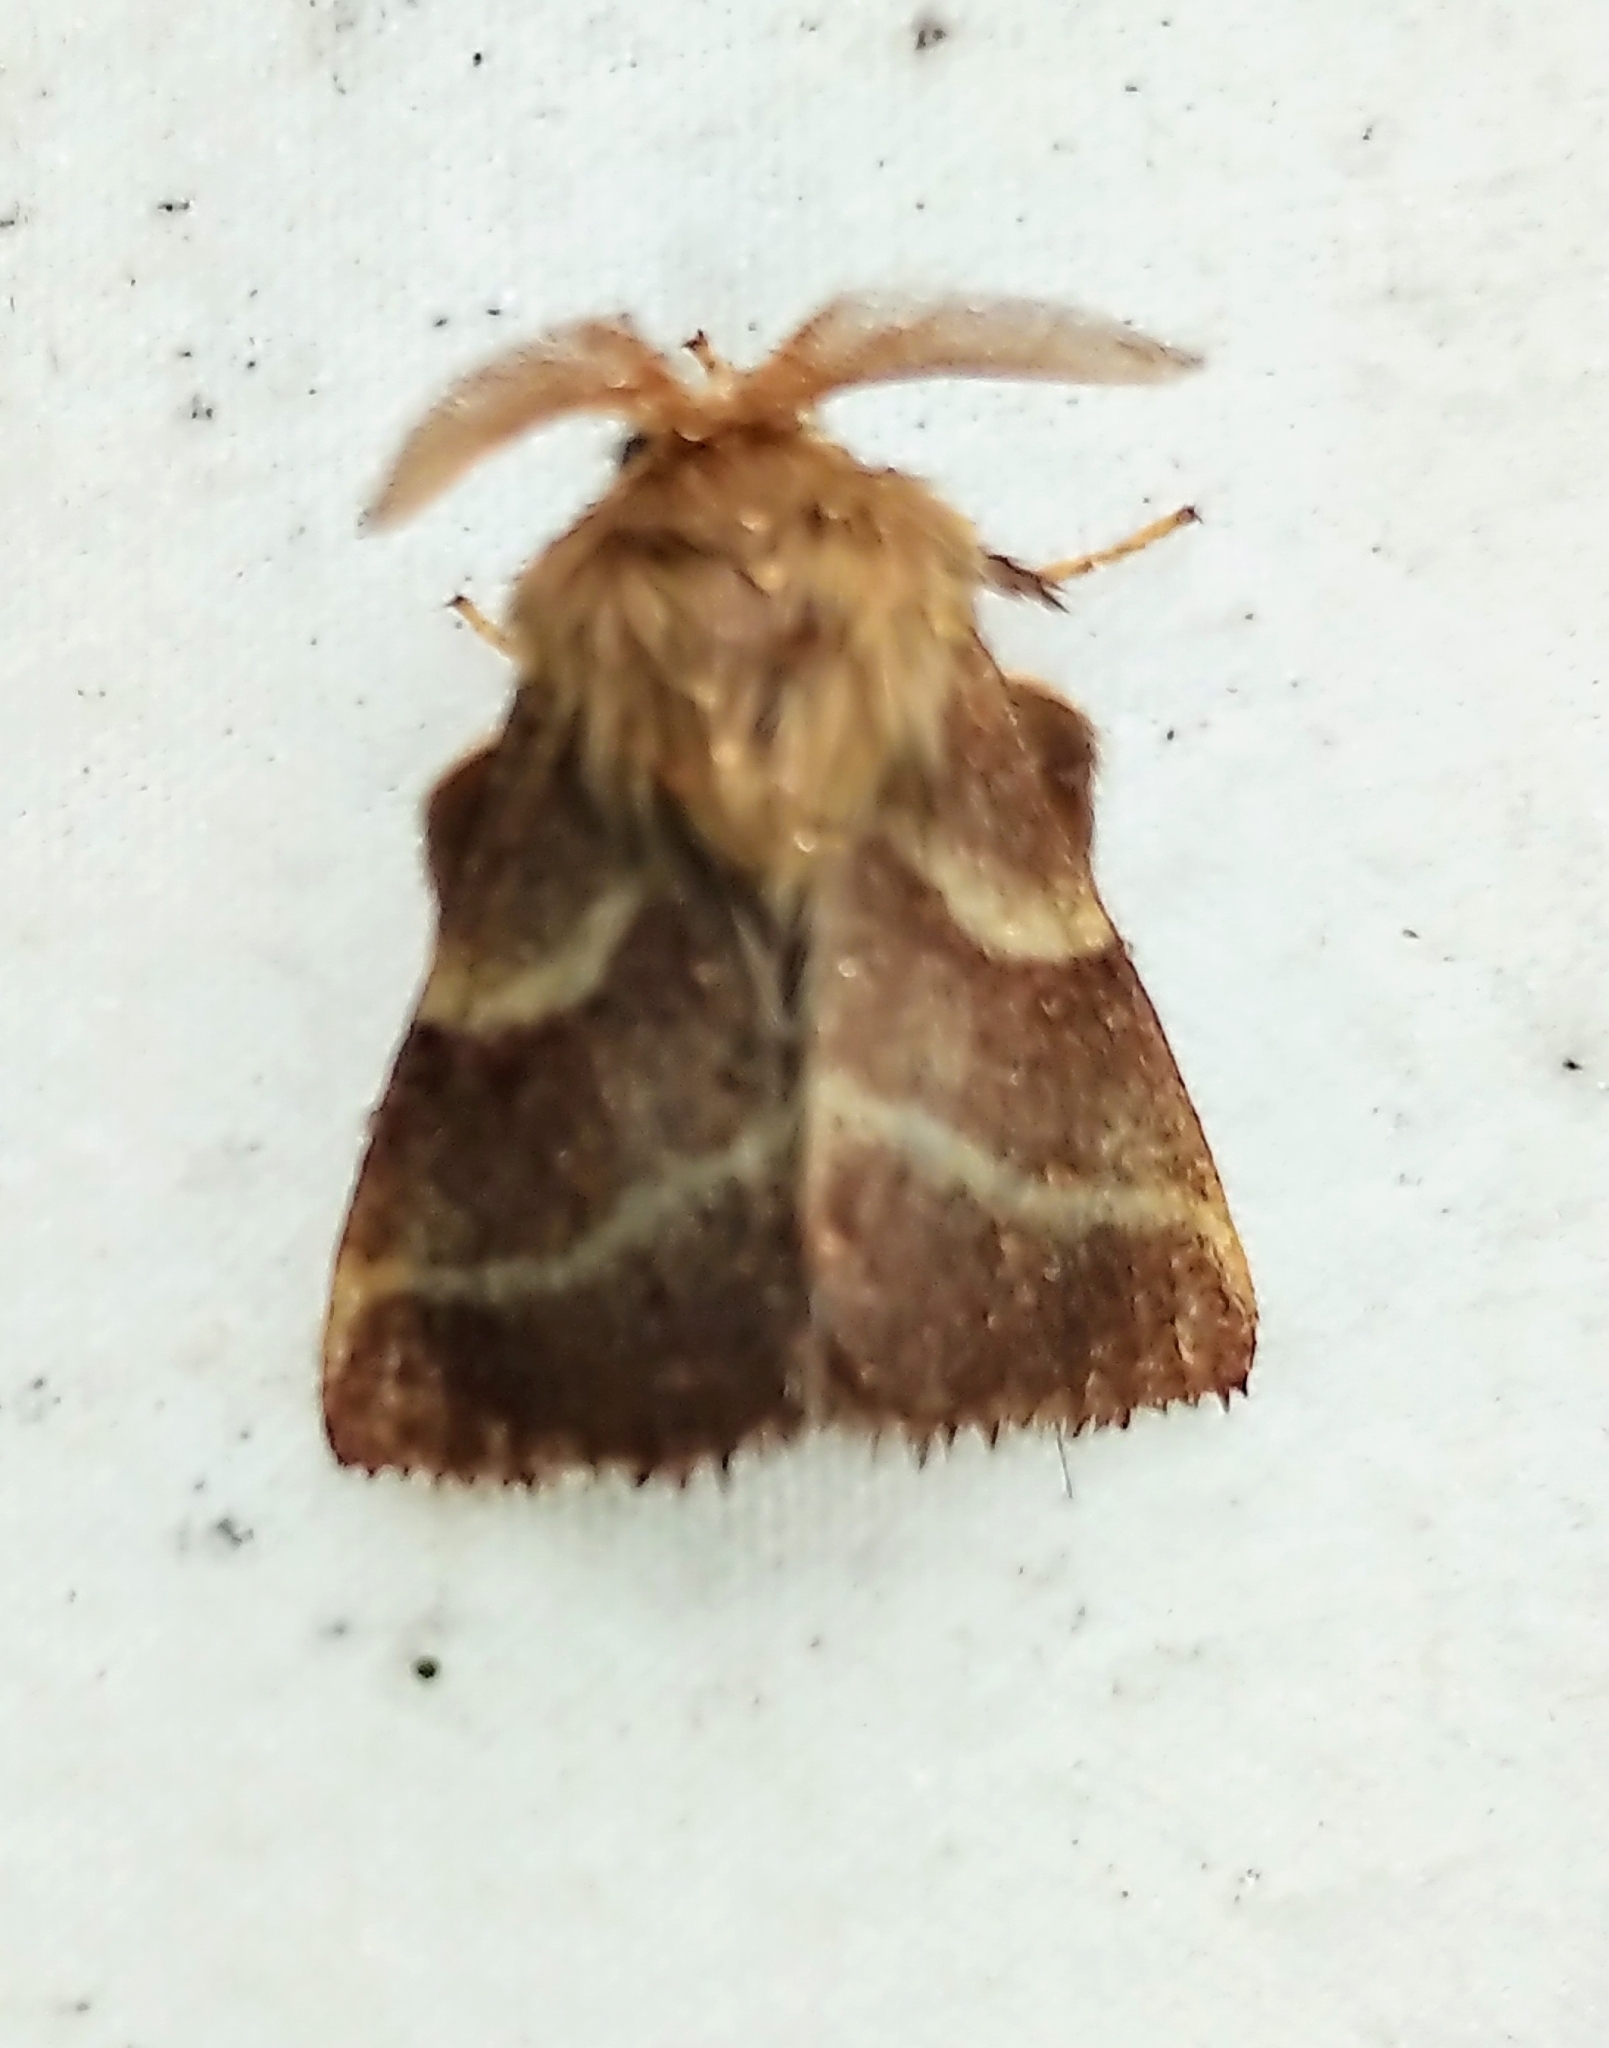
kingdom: Animalia
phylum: Arthropoda
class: Insecta
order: Lepidoptera
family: Lasiocampidae
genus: Malacosoma
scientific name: Malacosoma californica
